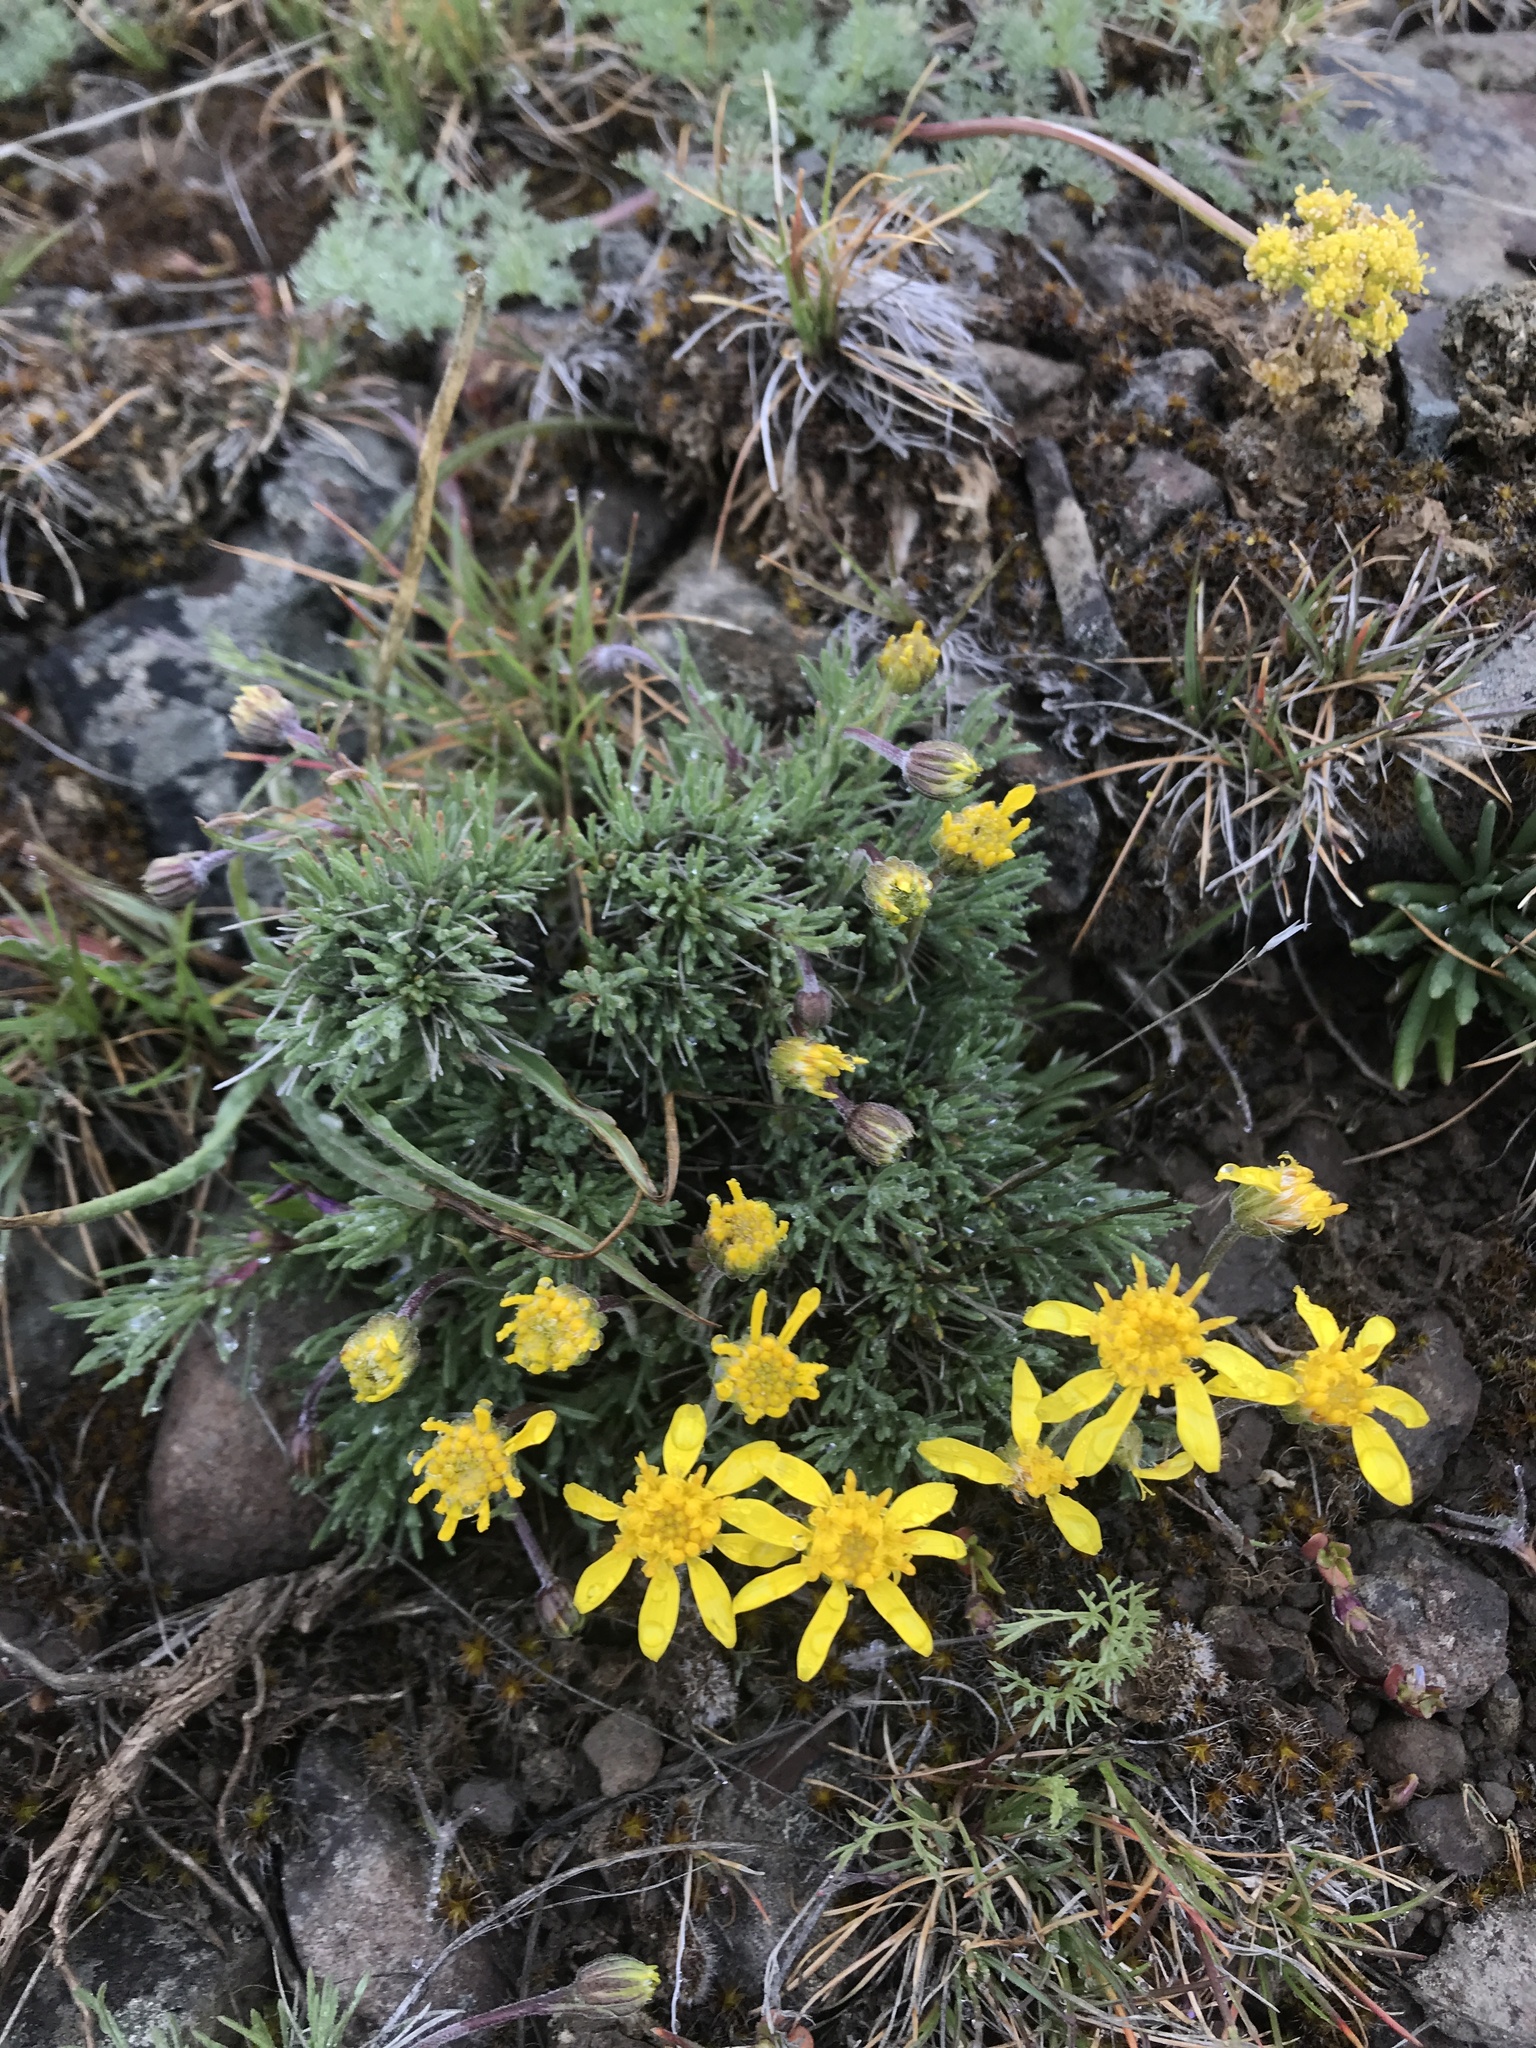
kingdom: Plantae
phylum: Tracheophyta
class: Magnoliopsida
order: Asterales
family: Asteraceae
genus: Nestotus
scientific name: Nestotus stenophyllus
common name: Narrow-leaf mock goldenweed
